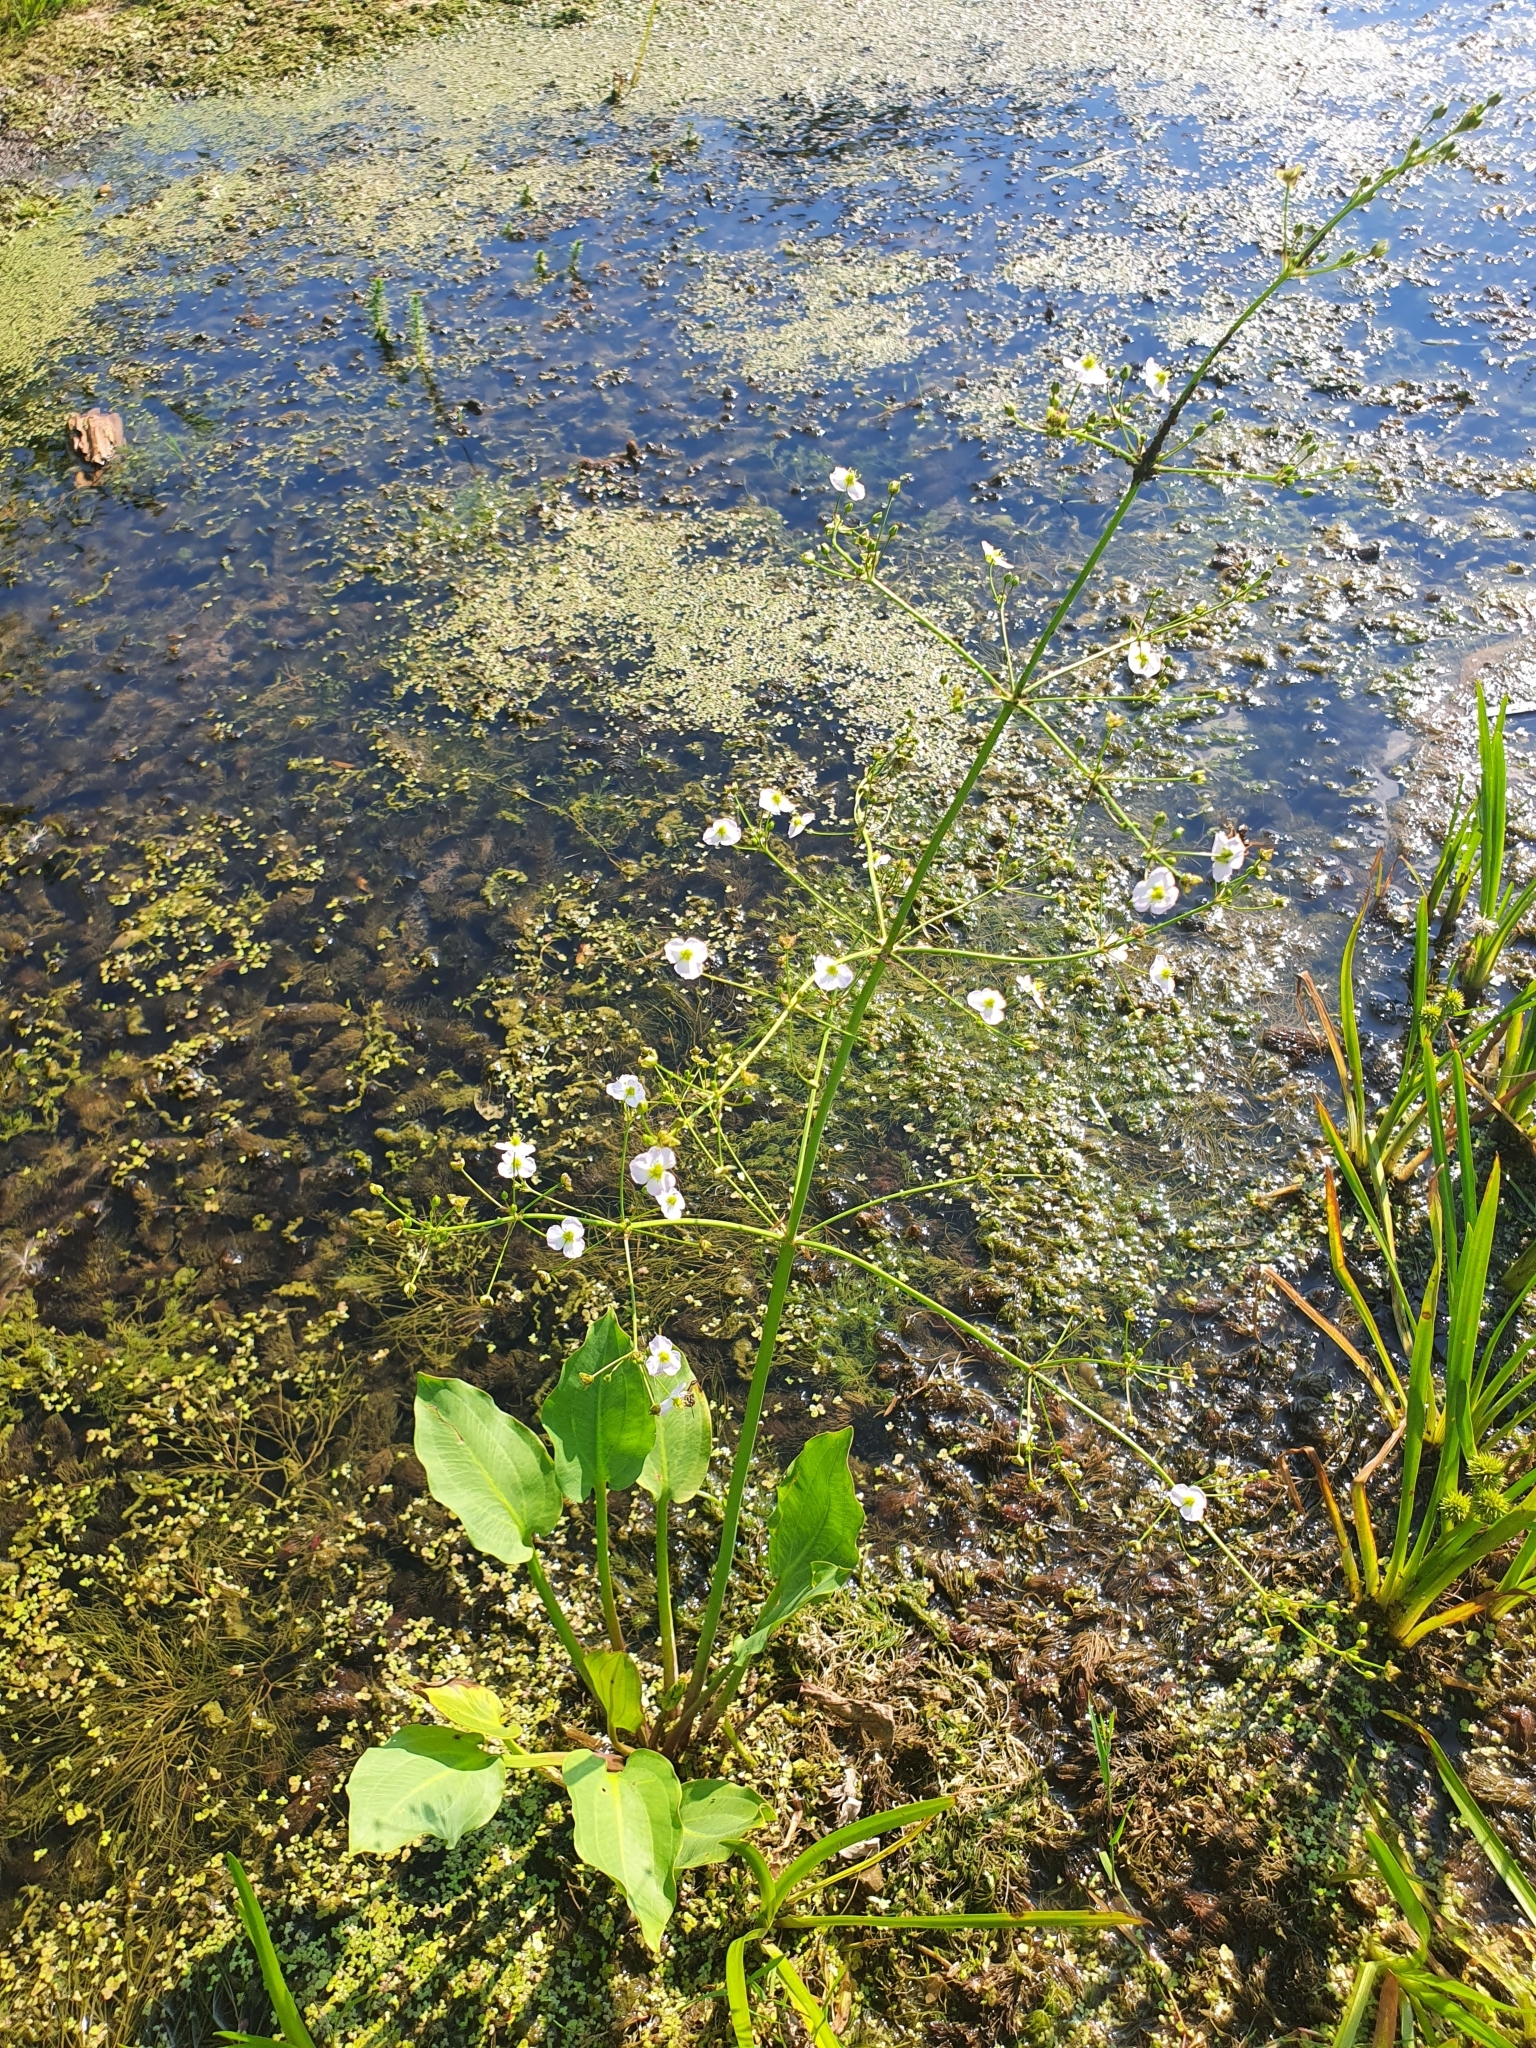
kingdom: Plantae
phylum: Tracheophyta
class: Liliopsida
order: Alismatales
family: Alismataceae
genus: Alisma
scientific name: Alisma plantago-aquatica
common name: Water-plantain
